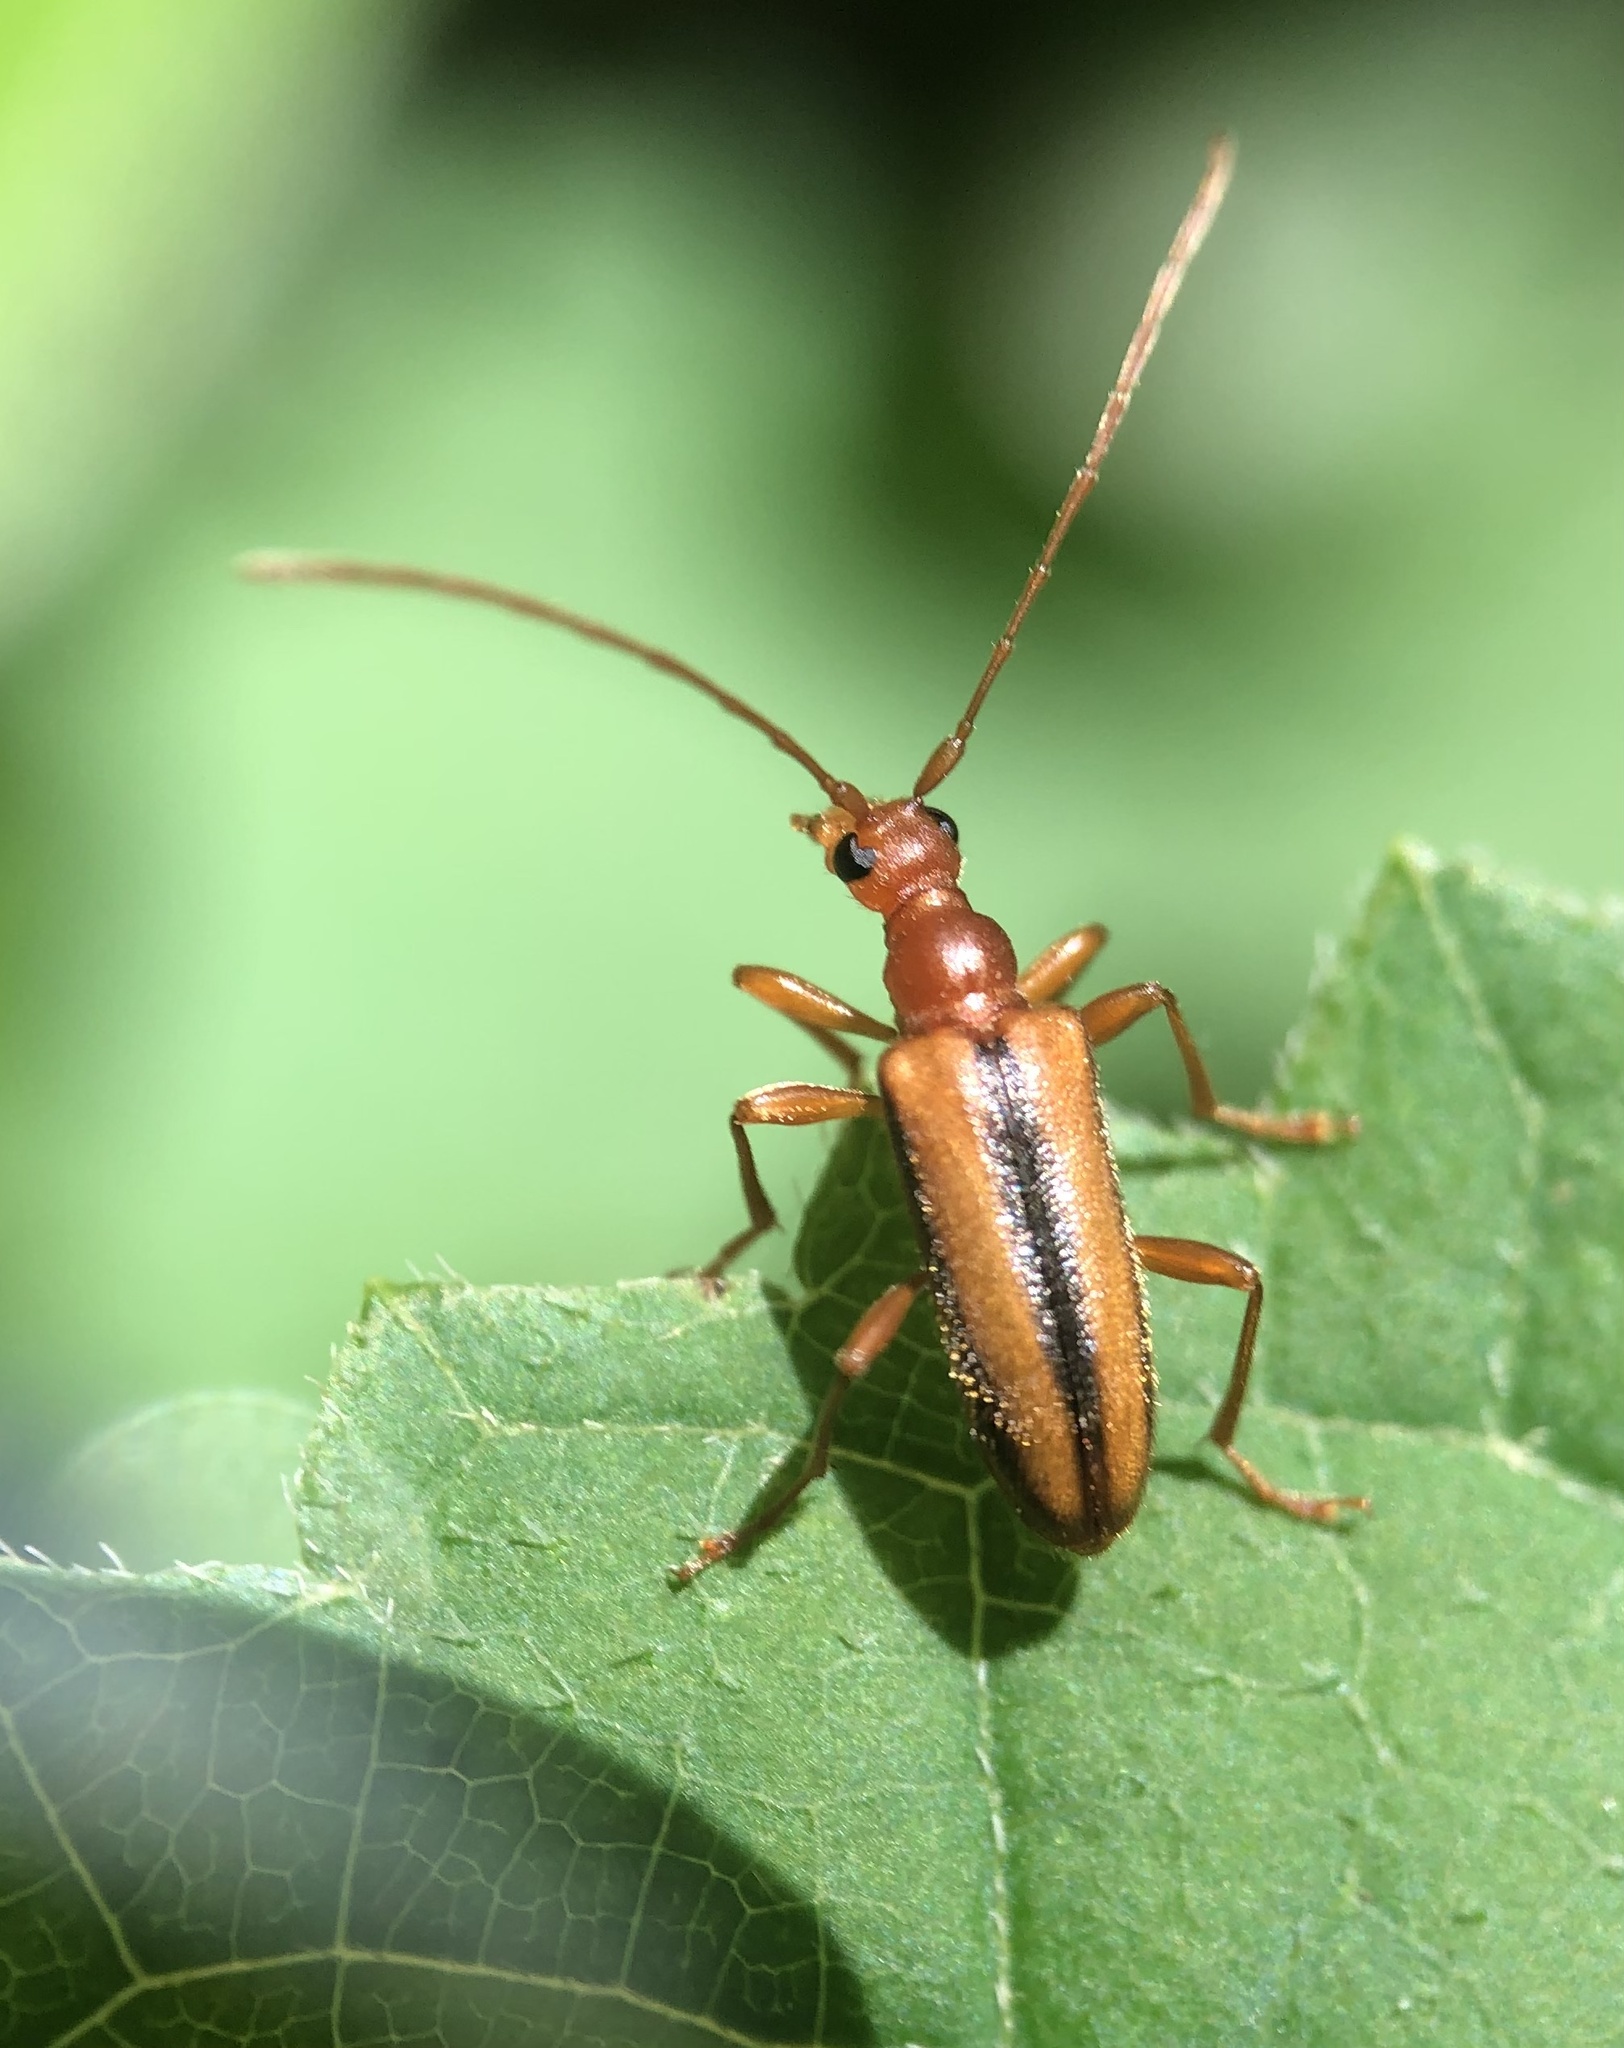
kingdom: Animalia
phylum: Arthropoda
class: Insecta
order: Coleoptera
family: Cerambycidae
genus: Pidonia
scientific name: Pidonia aurata
